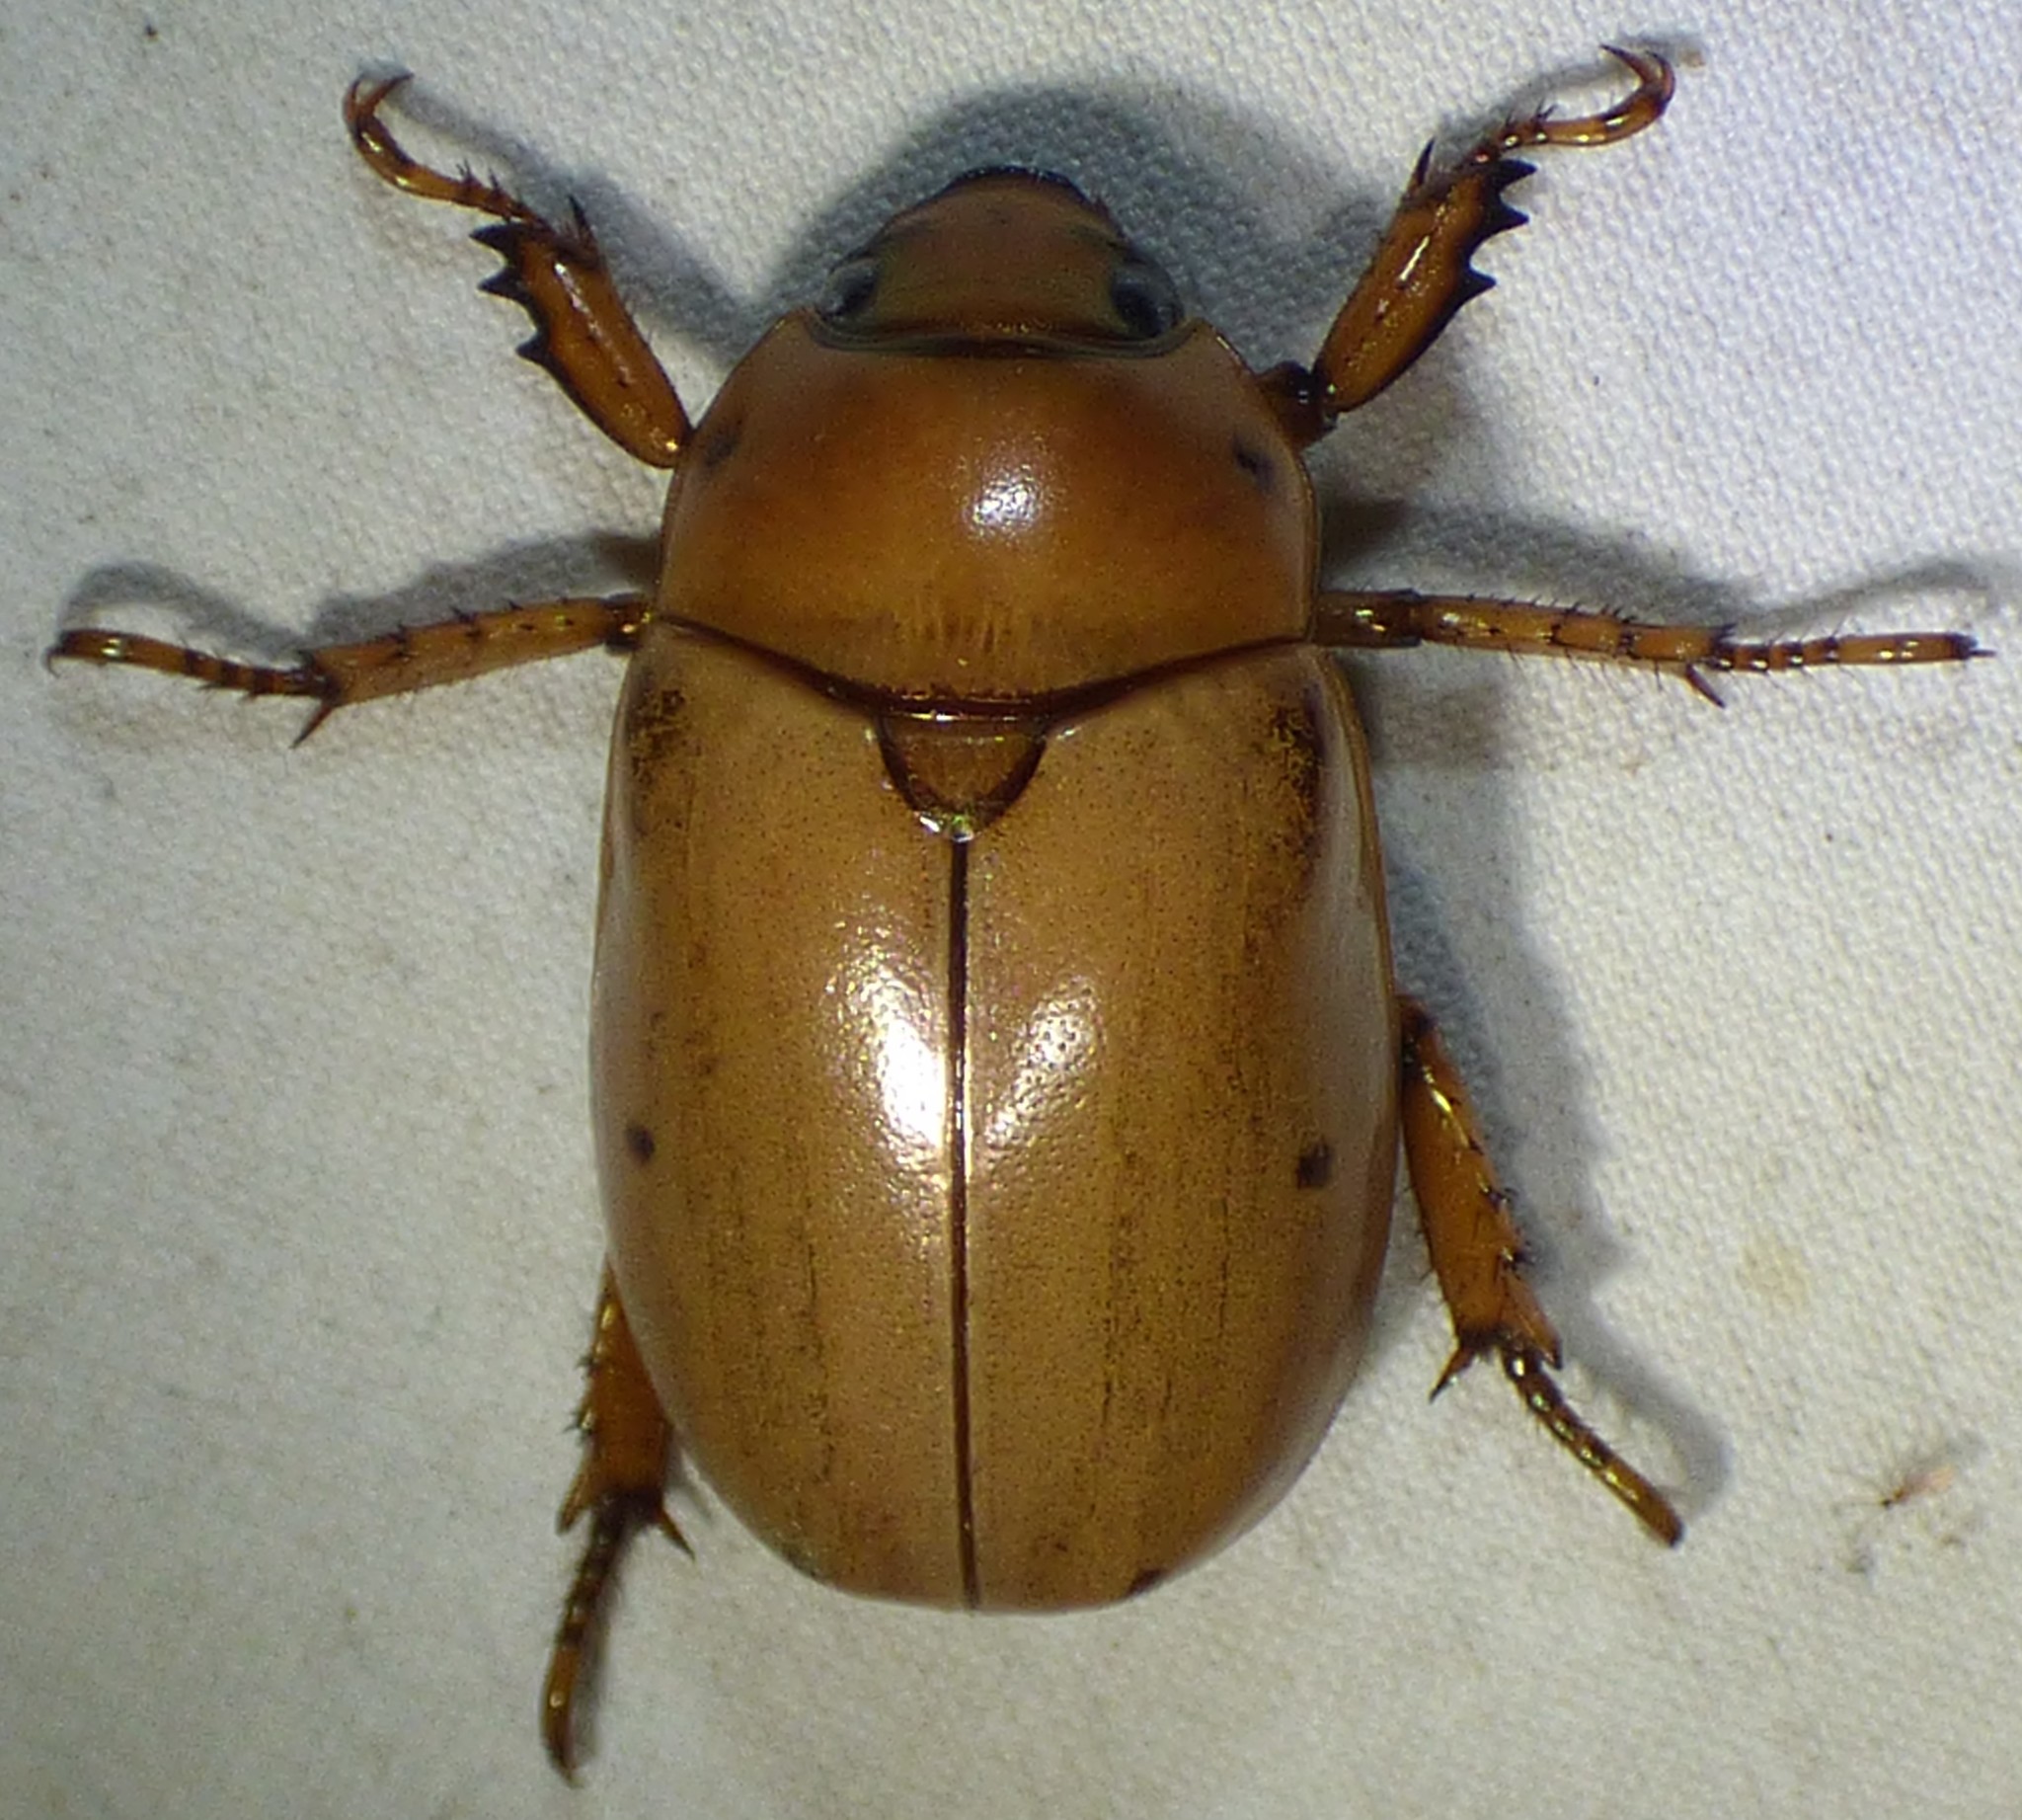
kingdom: Animalia
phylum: Arthropoda
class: Insecta
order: Coleoptera
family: Scarabaeidae
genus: Pelidnota
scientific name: Pelidnota punctata
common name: Grapevine beetle
